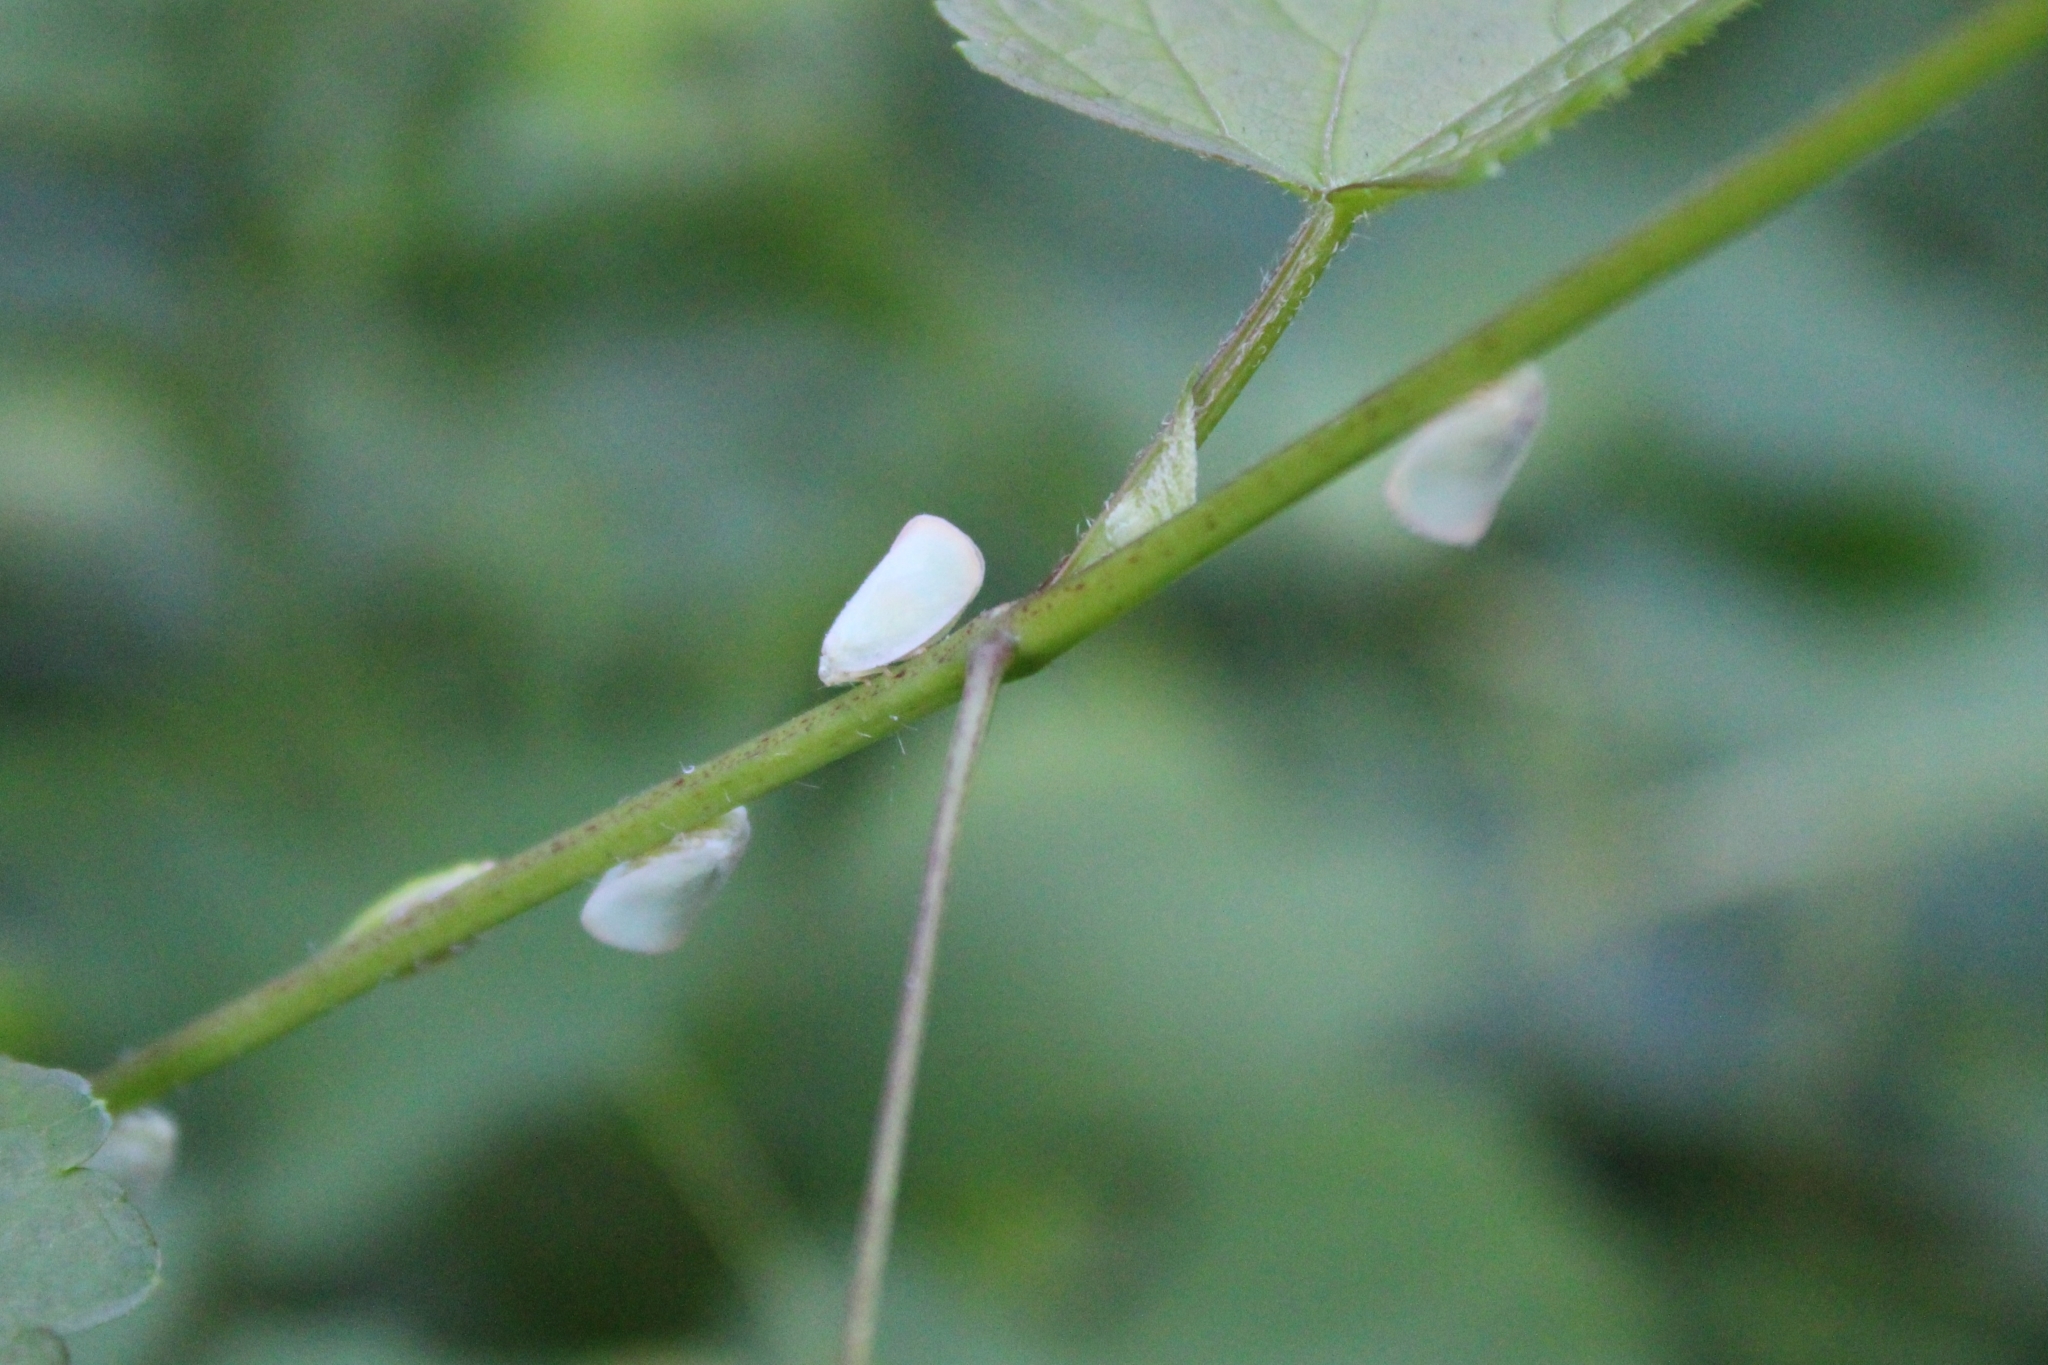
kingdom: Animalia
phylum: Arthropoda
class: Insecta
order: Hemiptera
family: Flatidae
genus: Flatormenis
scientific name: Flatormenis proxima
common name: Northern flatid planthopper
